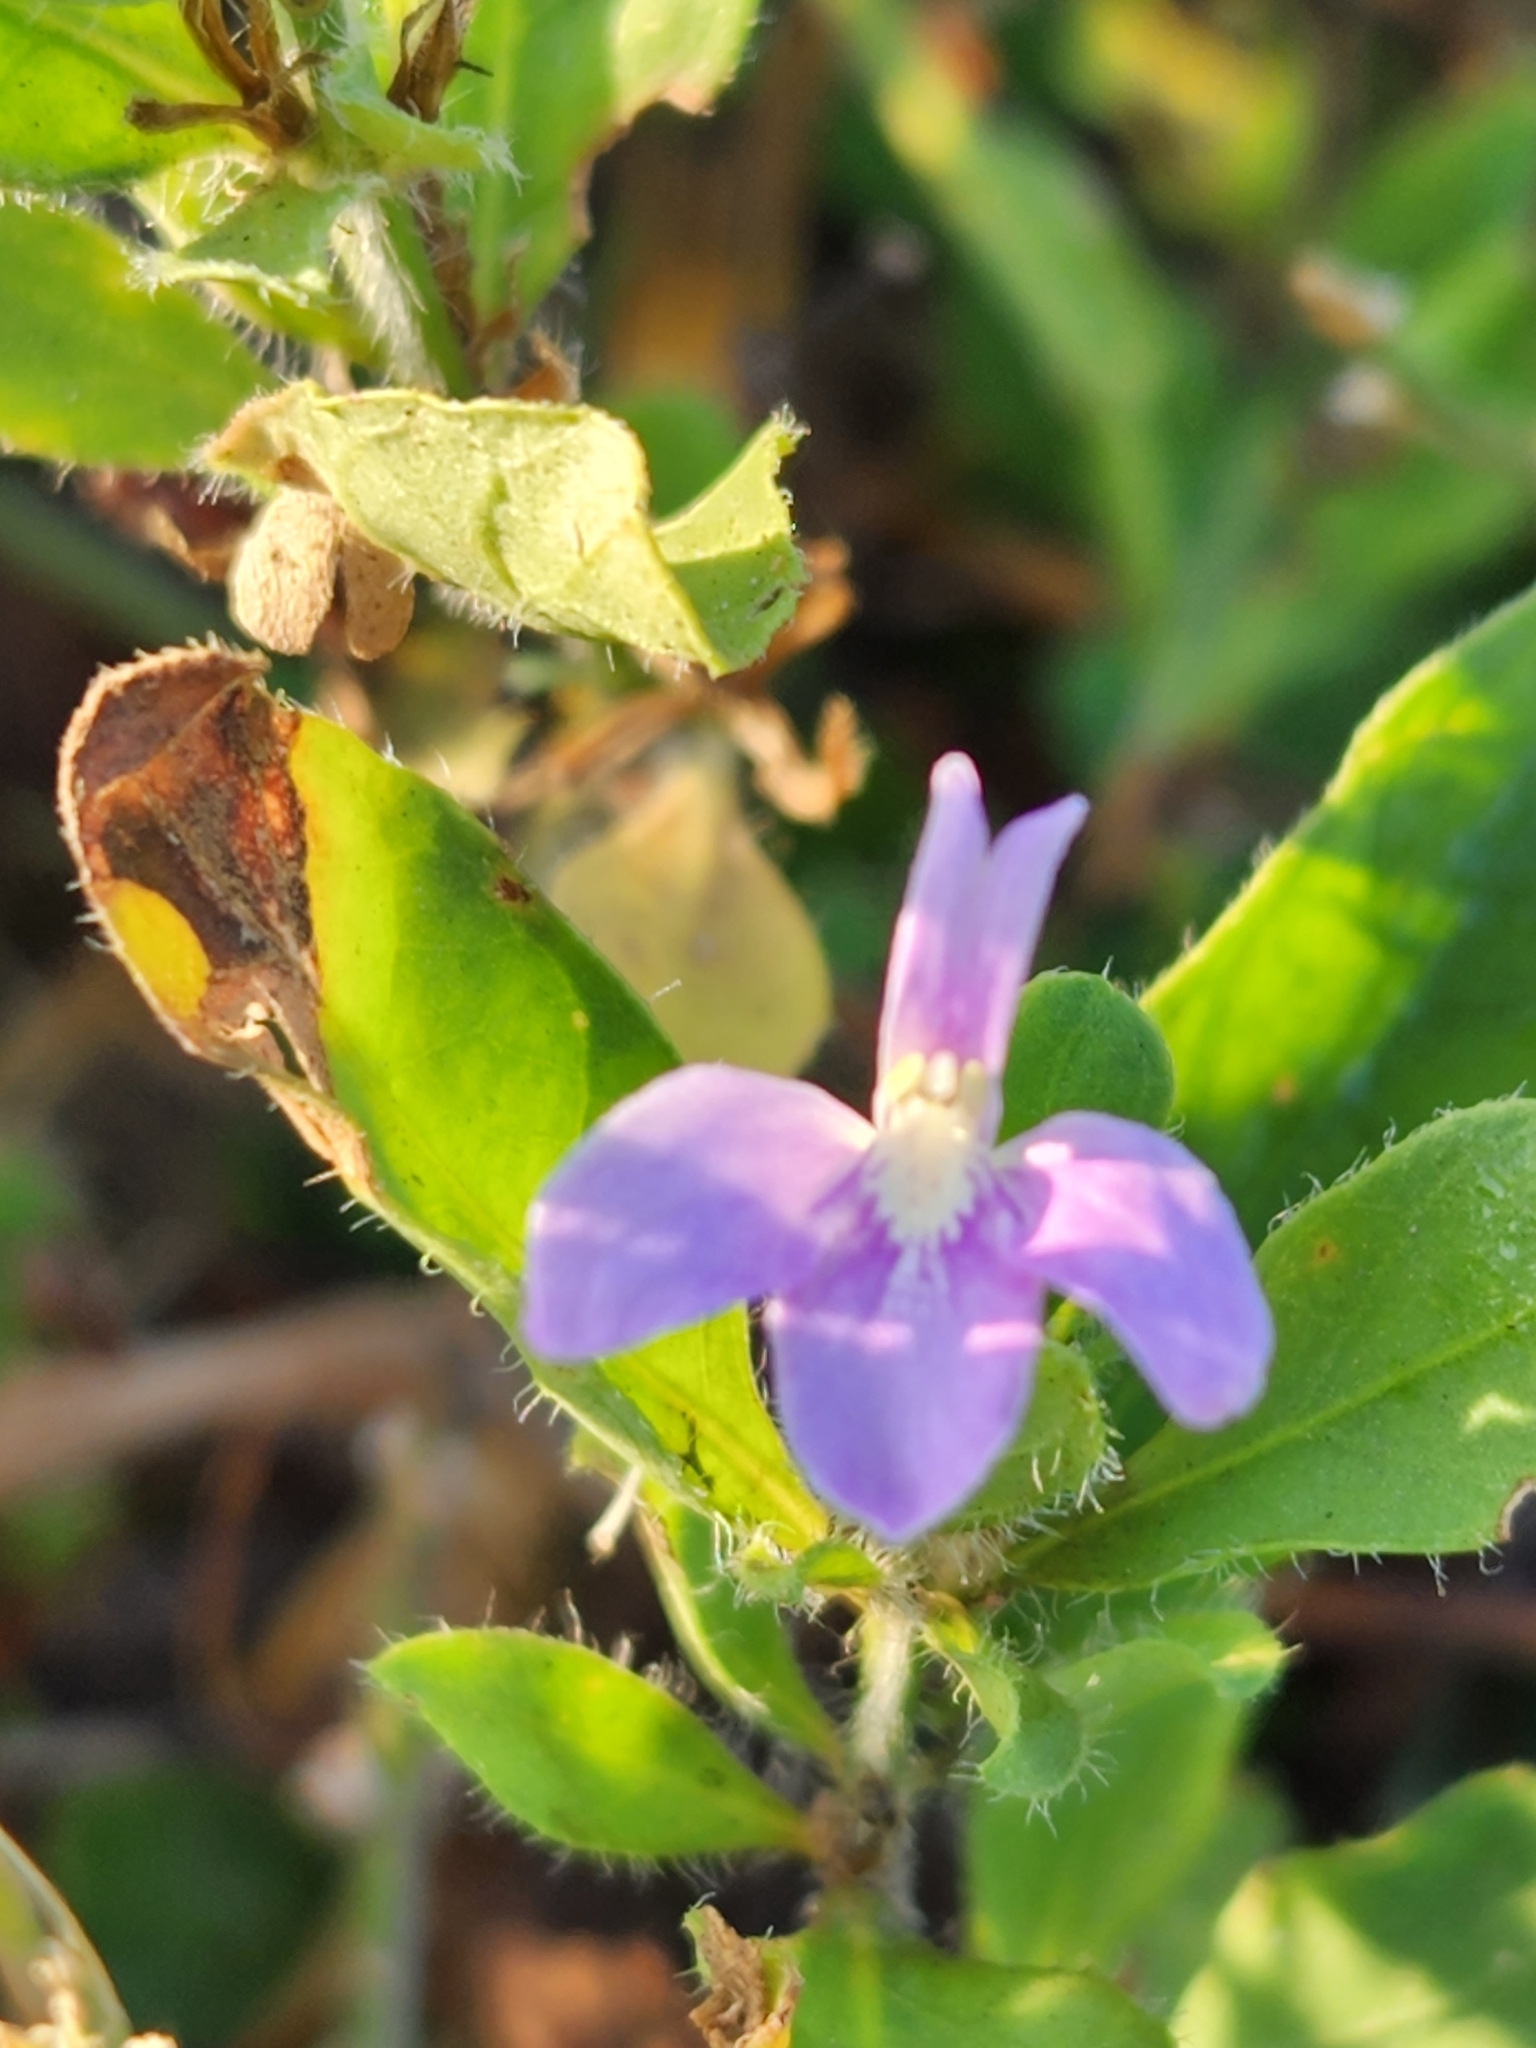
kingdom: Plantae
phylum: Tracheophyta
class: Magnoliopsida
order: Lamiales
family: Acanthaceae
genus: Justicia
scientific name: Justicia pilosella
